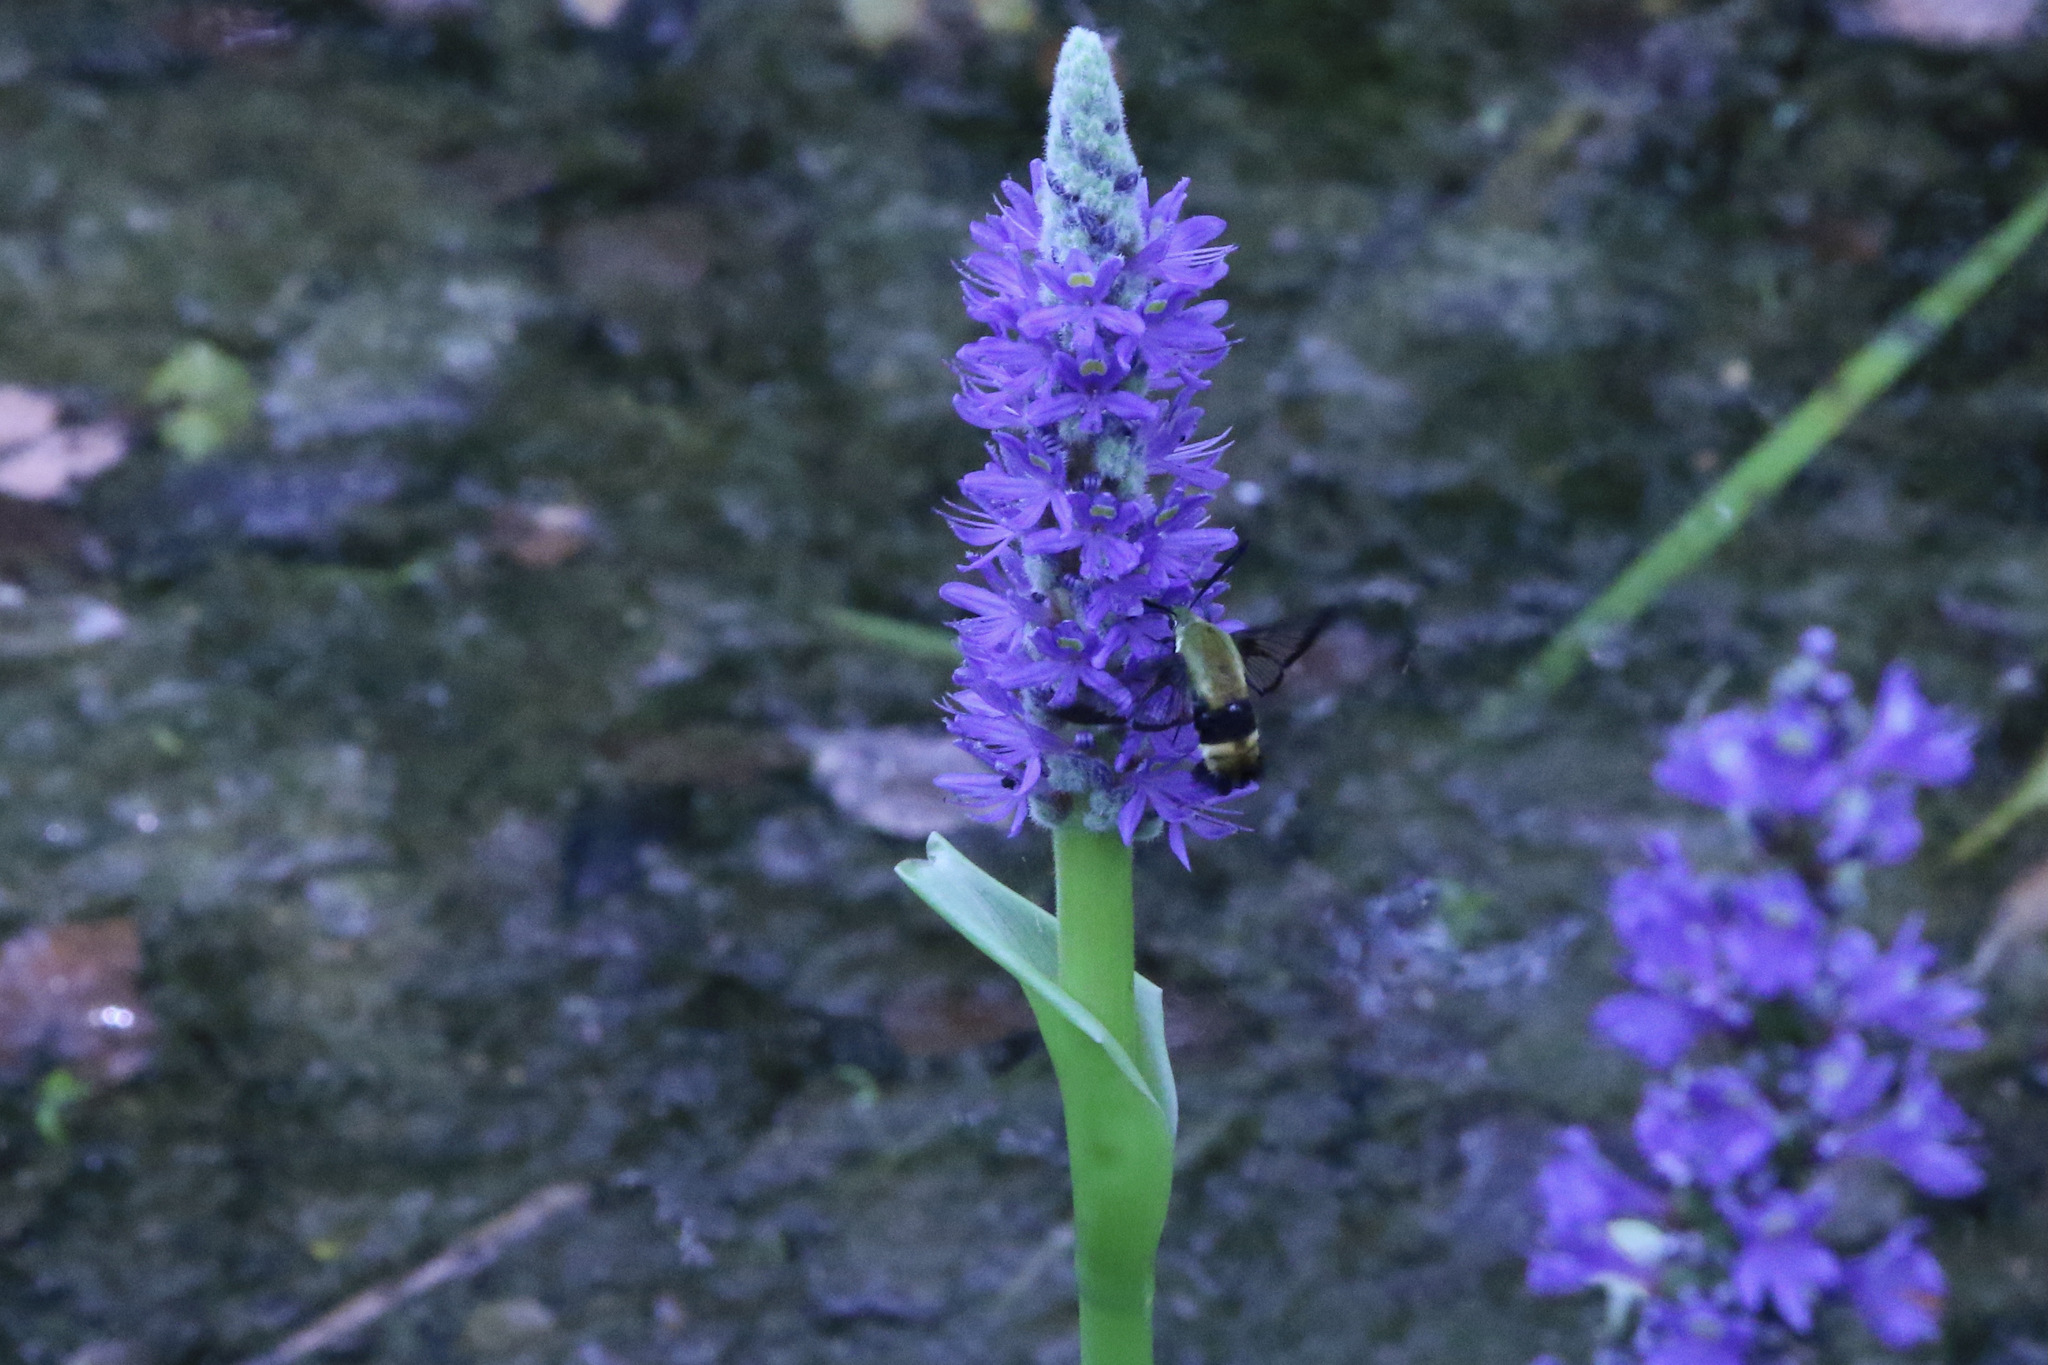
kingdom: Animalia
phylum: Arthropoda
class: Insecta
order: Lepidoptera
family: Sphingidae
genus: Hemaris
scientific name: Hemaris diffinis
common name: Bumblebee moth
